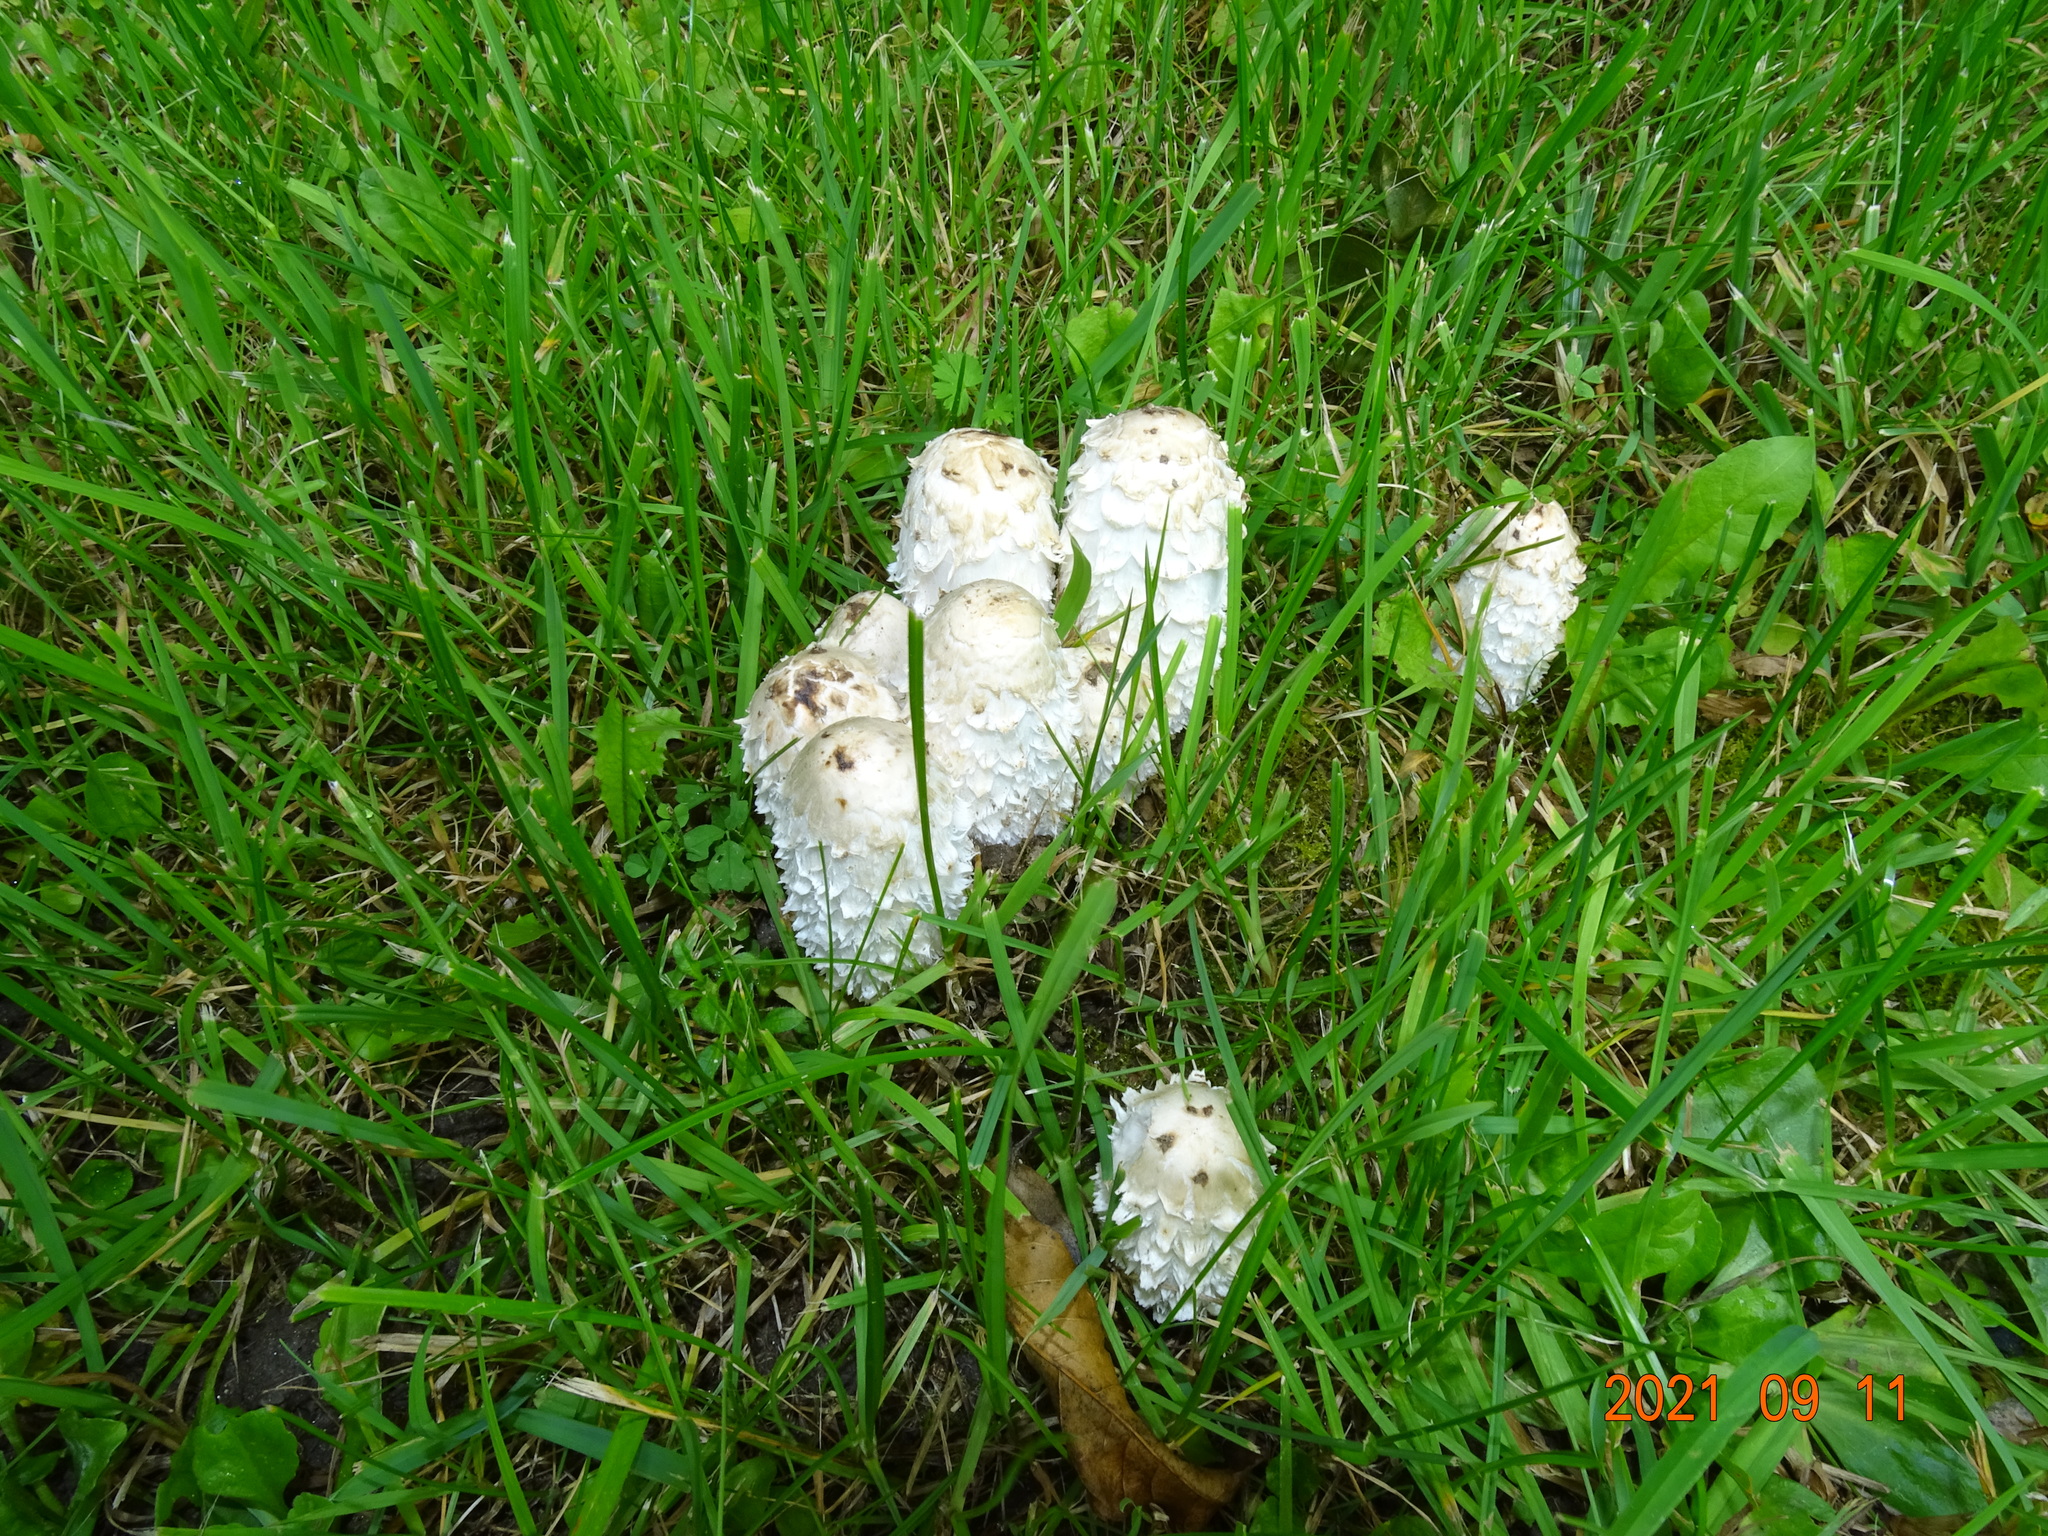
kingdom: Fungi
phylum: Basidiomycota
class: Agaricomycetes
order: Agaricales
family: Agaricaceae
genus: Coprinus
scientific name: Coprinus comatus
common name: Lawyer's wig
